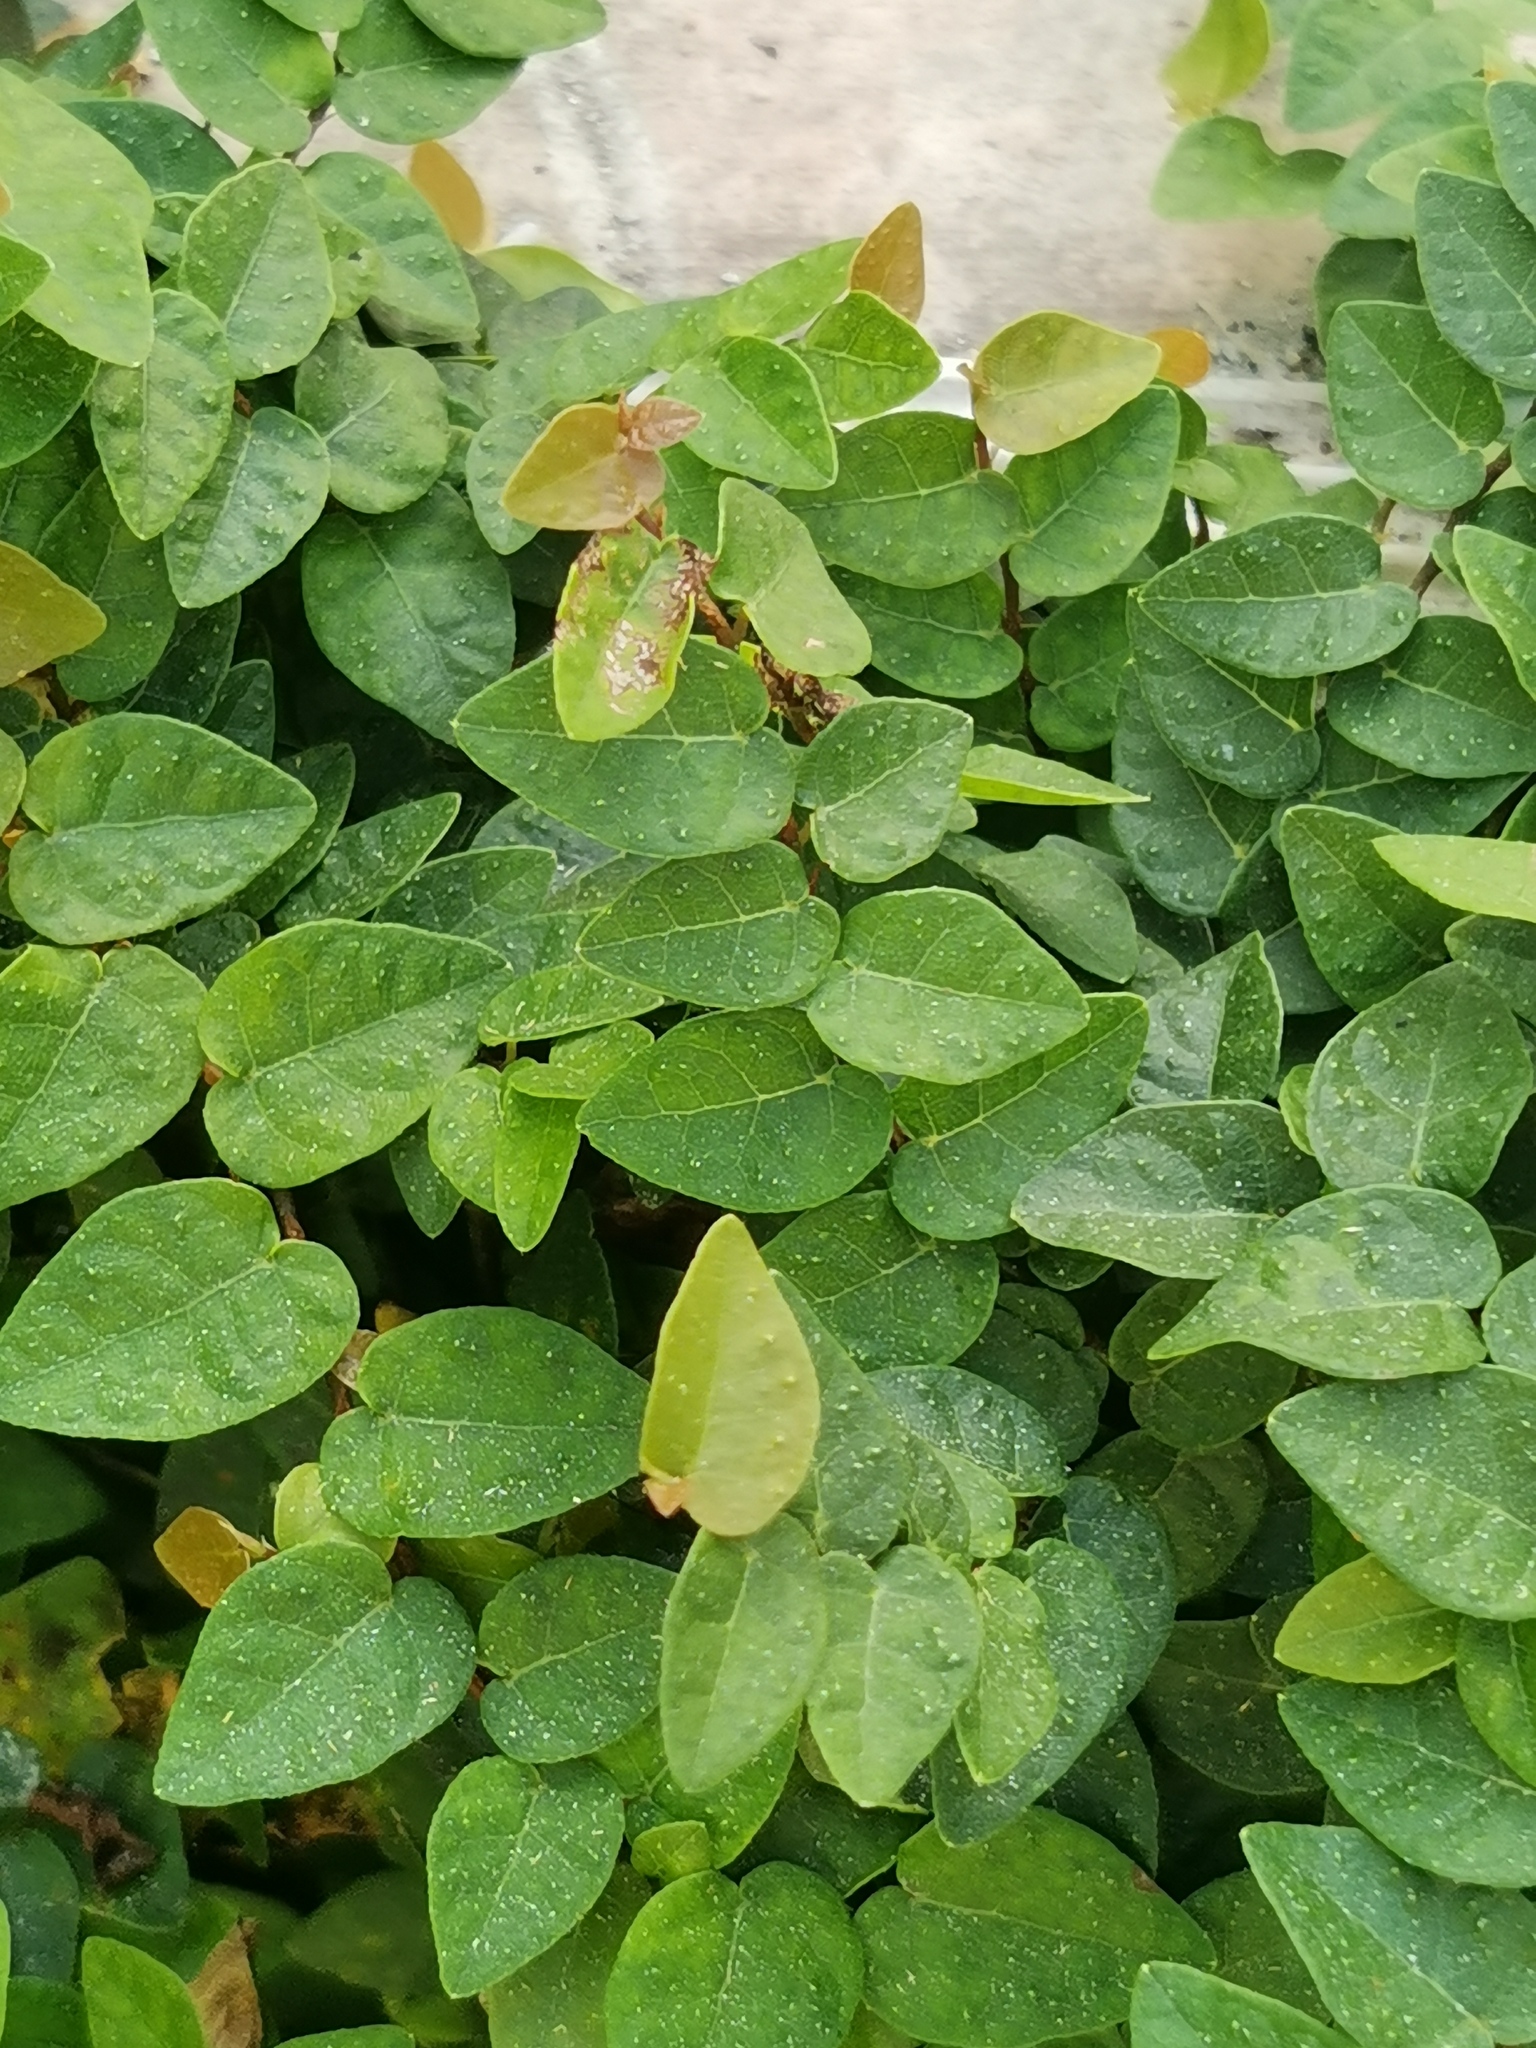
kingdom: Plantae
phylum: Tracheophyta
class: Magnoliopsida
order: Rosales
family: Moraceae
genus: Ficus
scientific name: Ficus pumila
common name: Climbingfig
